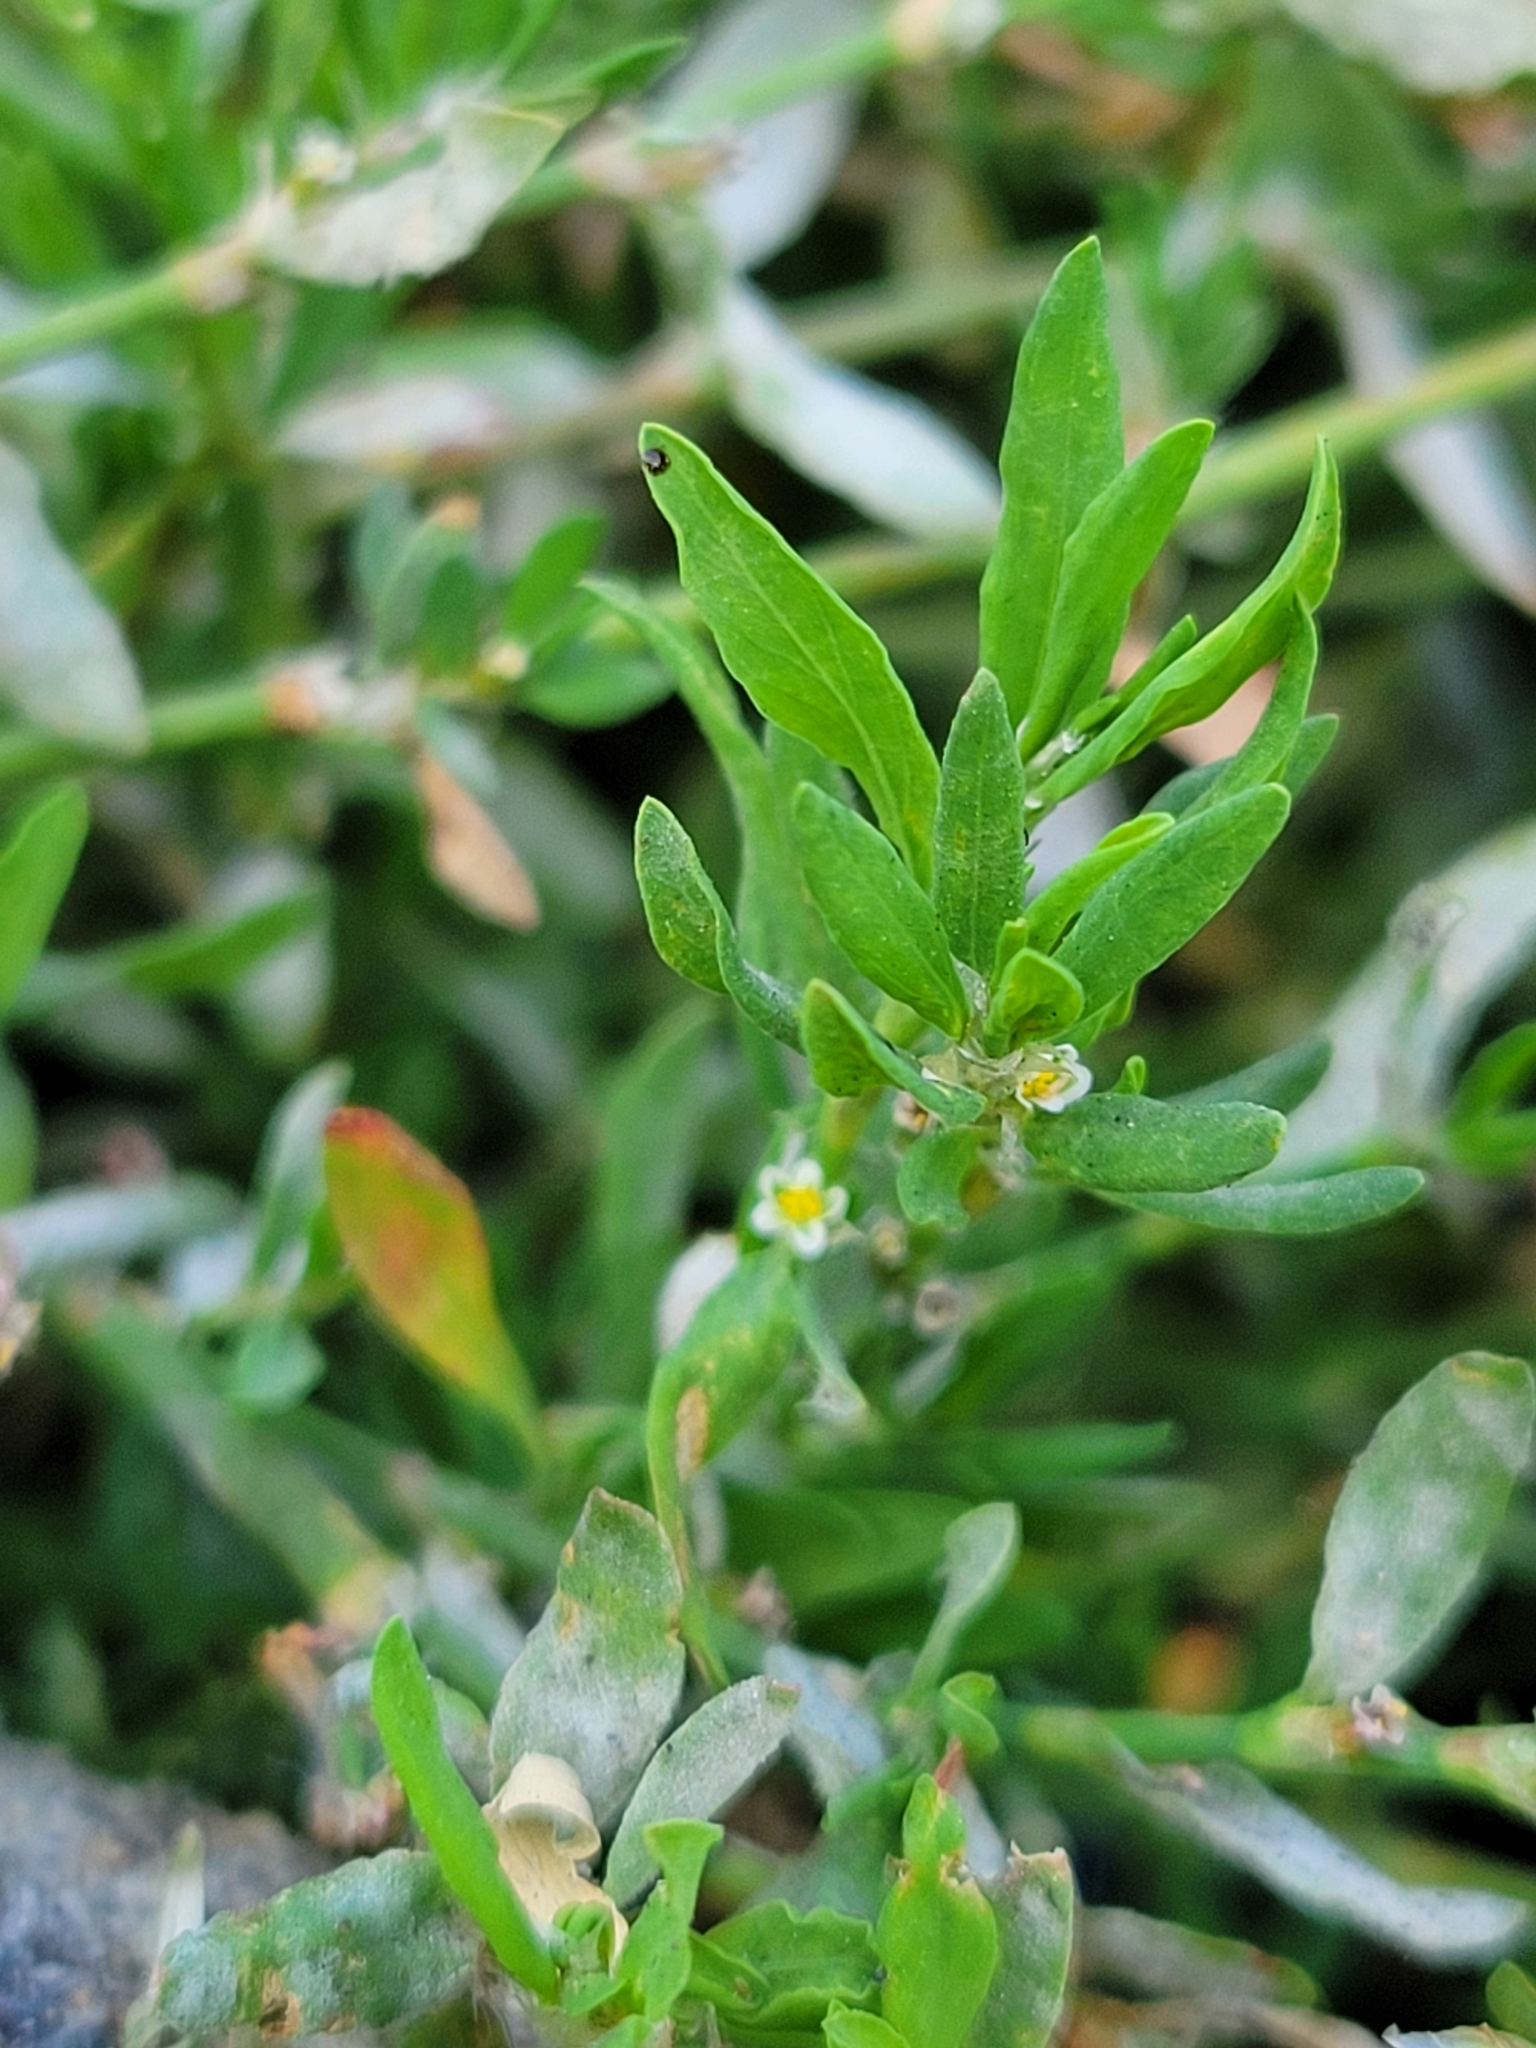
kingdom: Plantae
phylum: Tracheophyta
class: Magnoliopsida
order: Caryophyllales
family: Polygonaceae
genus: Polygonum
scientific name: Polygonum aviculare
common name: Prostrate knotweed
